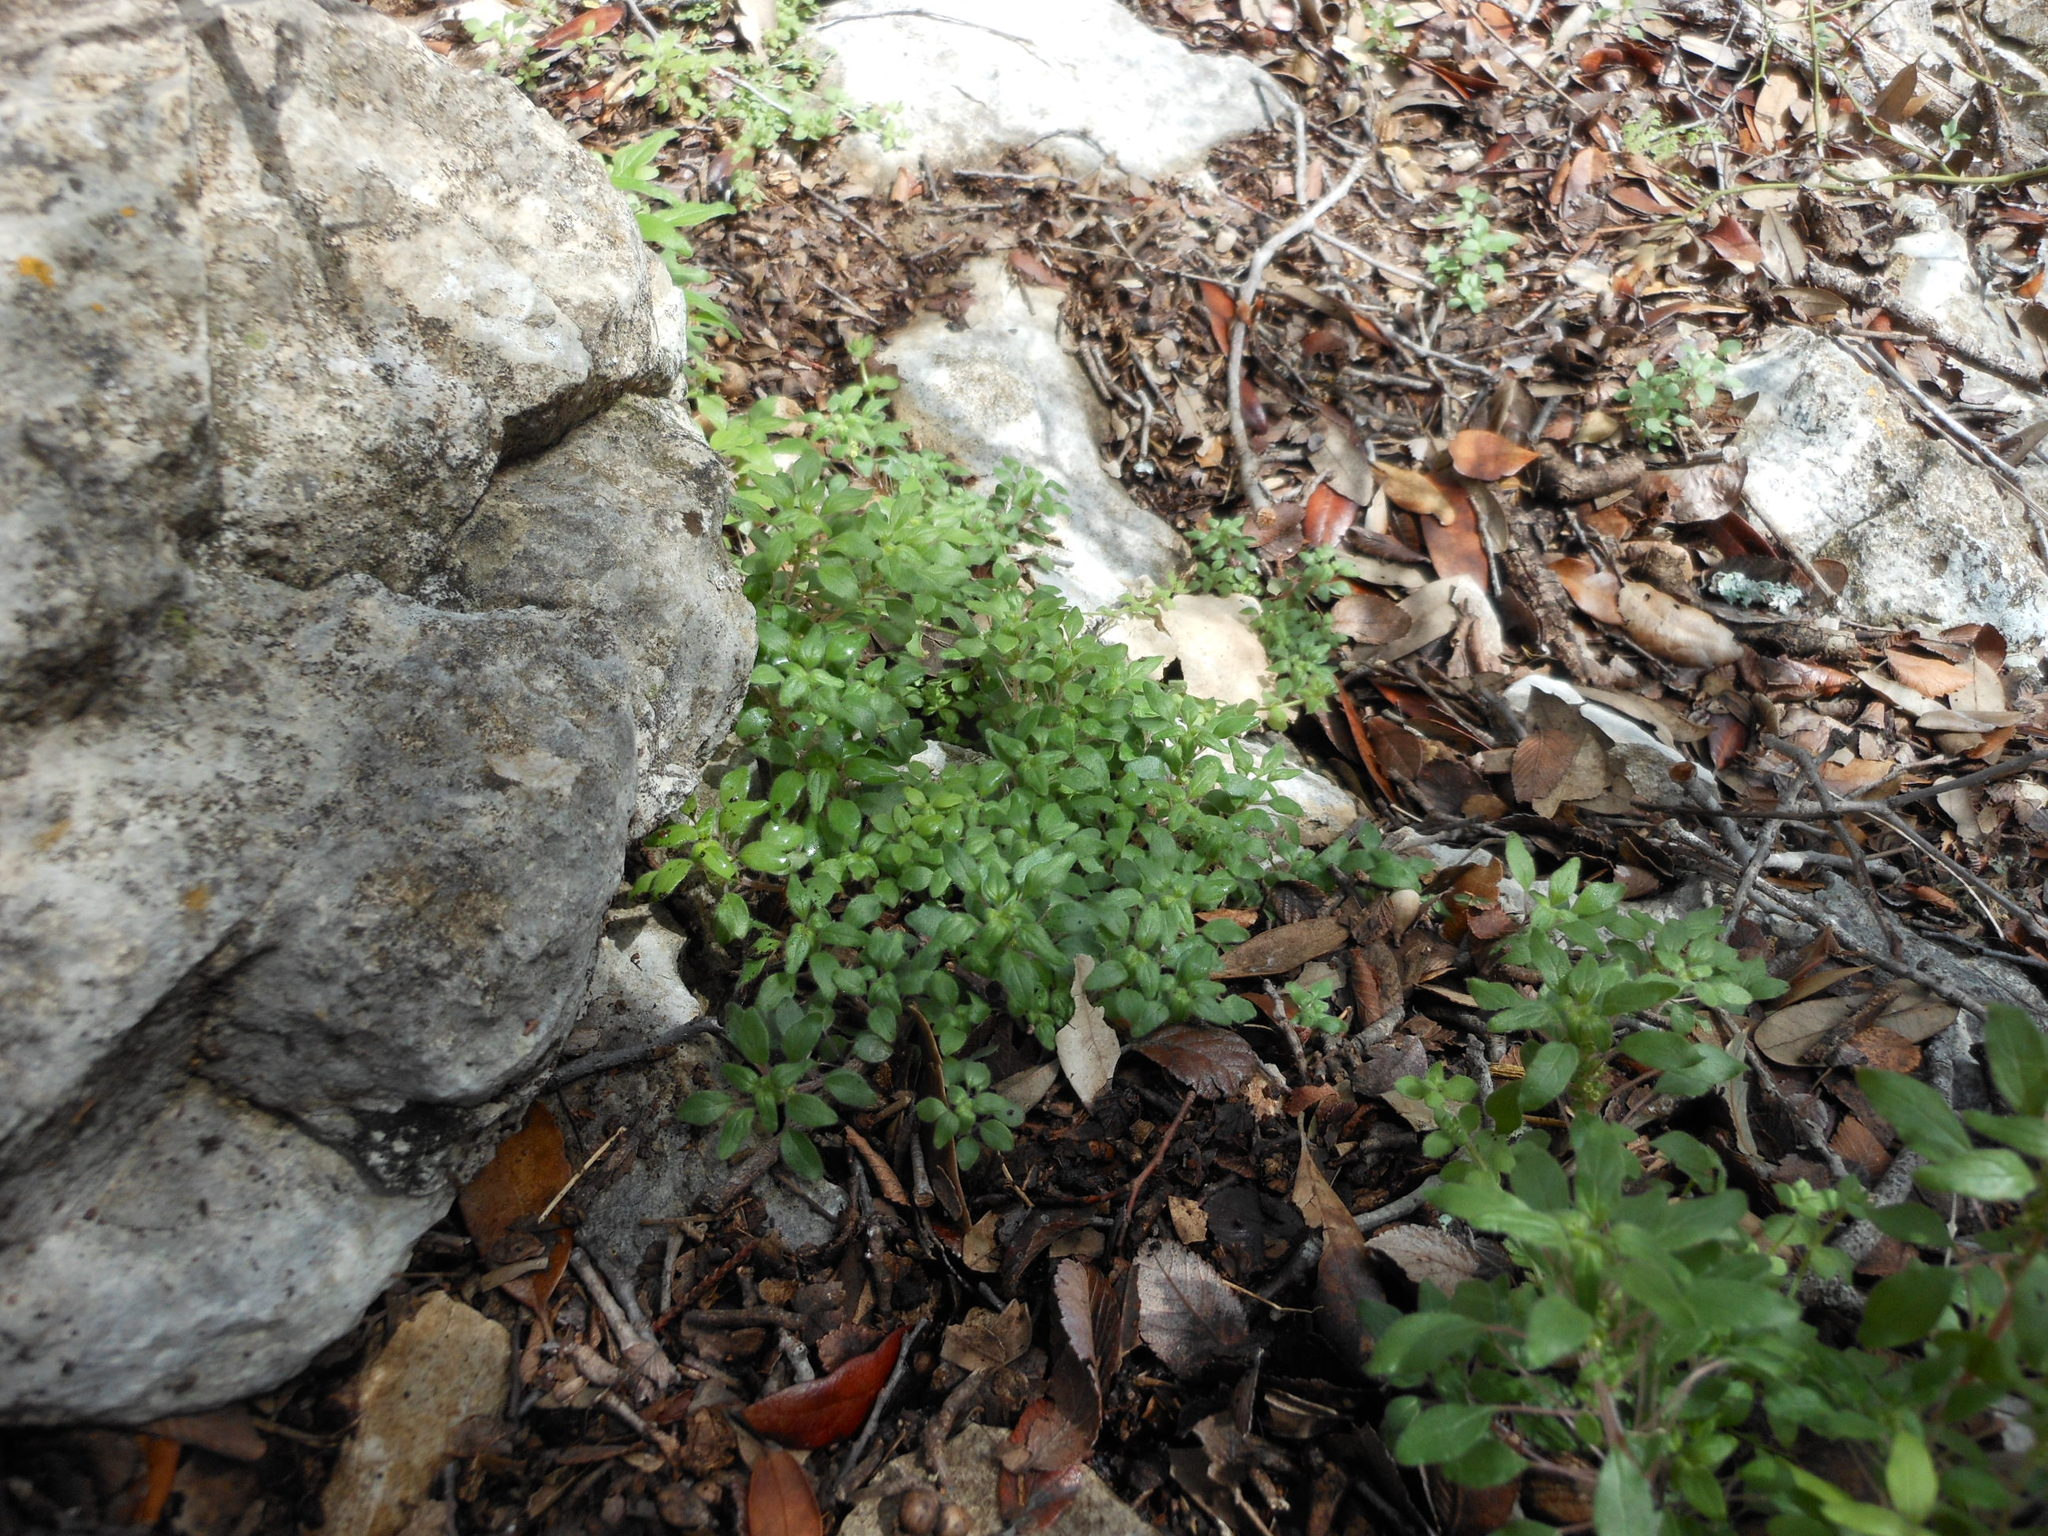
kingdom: Plantae
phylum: Tracheophyta
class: Magnoliopsida
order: Rosales
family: Urticaceae
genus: Parietaria
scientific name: Parietaria pensylvanica
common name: Pennsylvania pellitory
